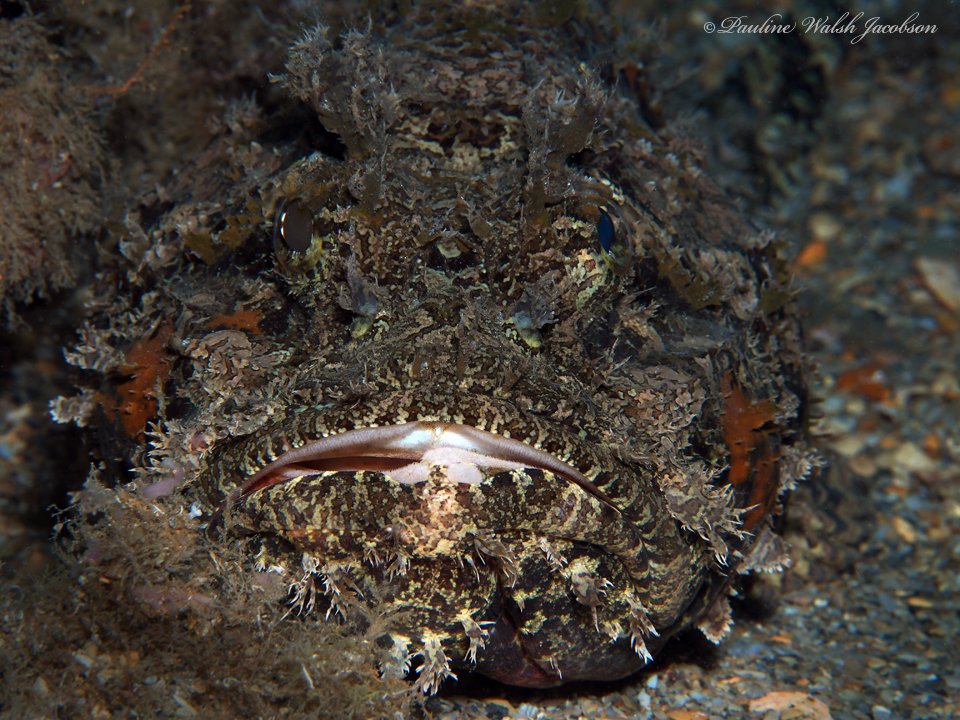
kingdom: Animalia
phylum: Chordata
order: Scorpaeniformes
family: Scorpaenidae
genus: Scorpaena
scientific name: Scorpaena plumieri
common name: Spotted scorpionfish
